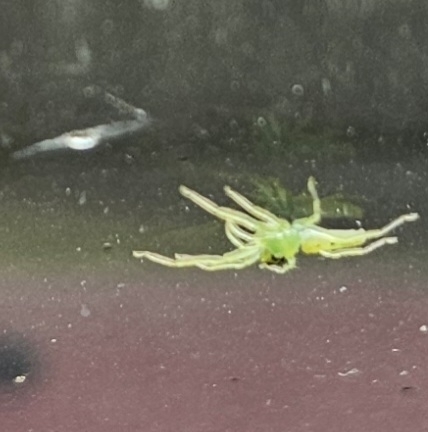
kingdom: Animalia
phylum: Arthropoda
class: Arachnida
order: Araneae
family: Salticidae
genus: Lyssomanes
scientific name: Lyssomanes viridis
